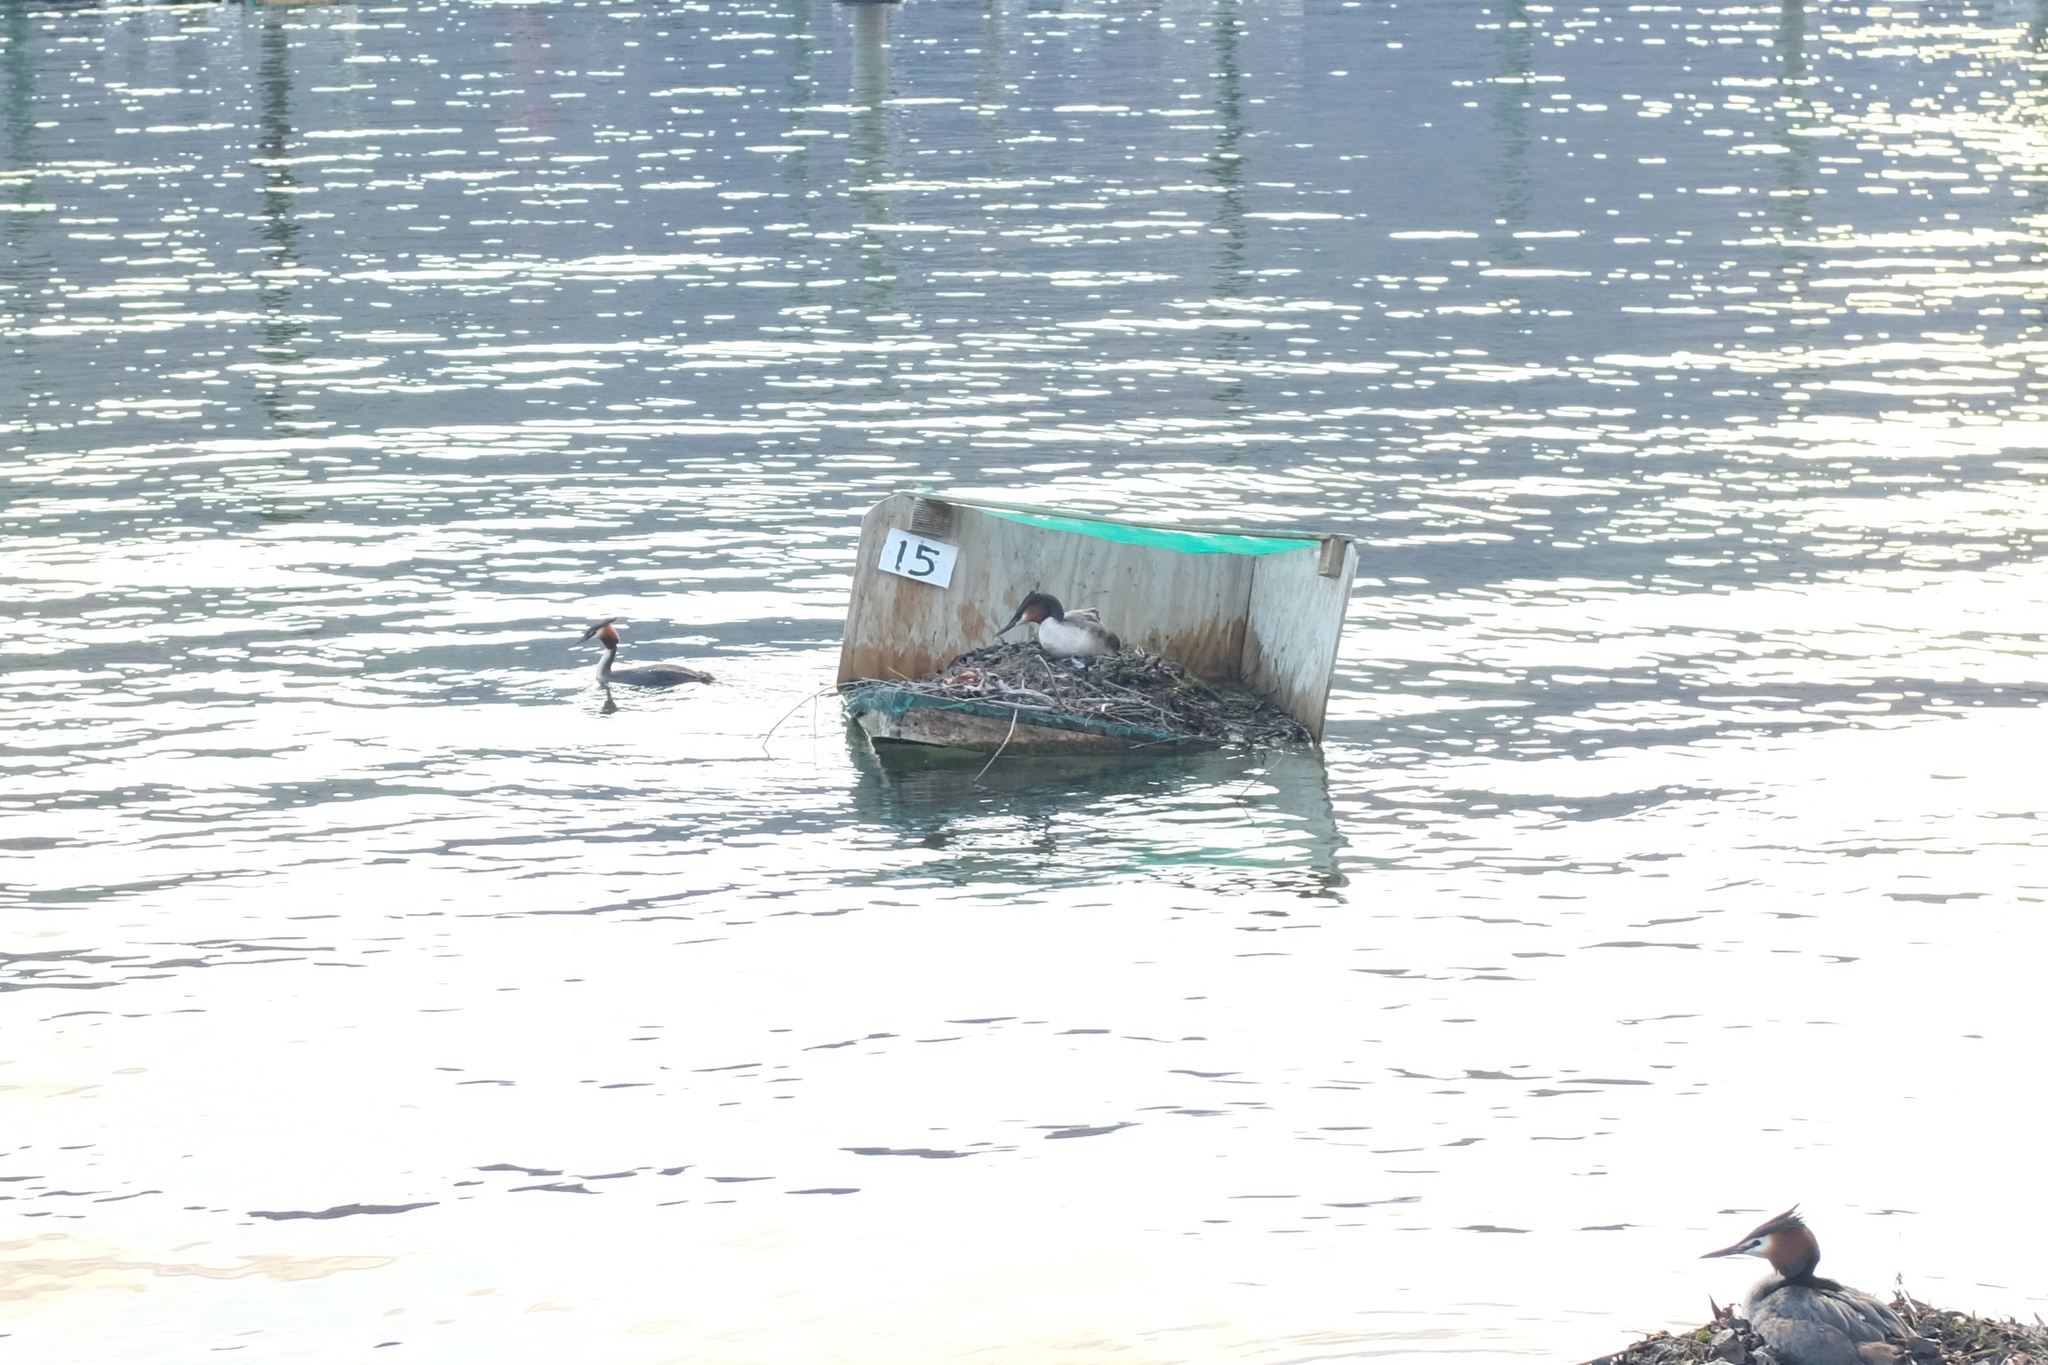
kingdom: Animalia
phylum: Chordata
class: Aves
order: Podicipediformes
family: Podicipedidae
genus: Podiceps
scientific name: Podiceps cristatus
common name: Great crested grebe
